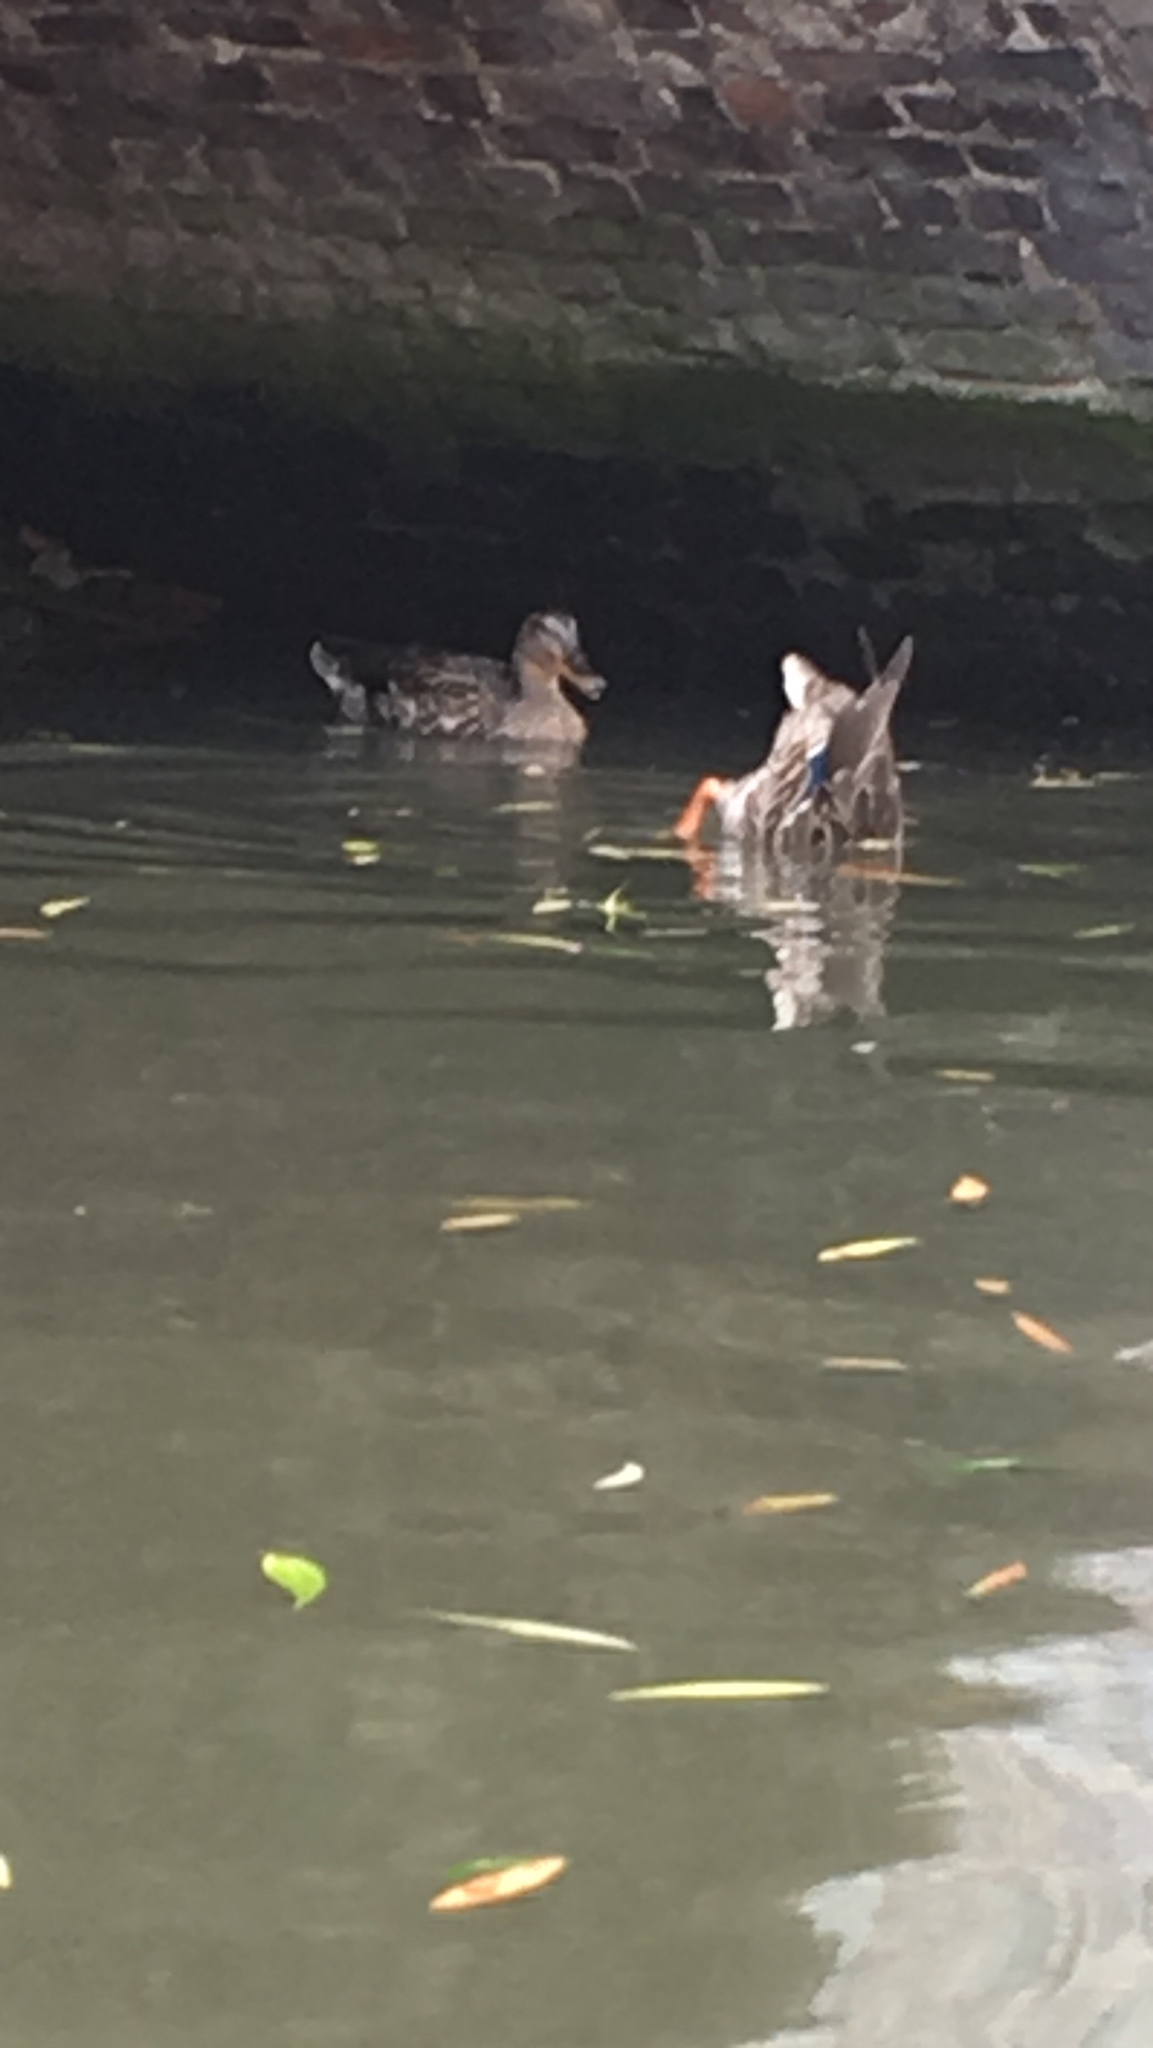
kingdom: Animalia
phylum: Chordata
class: Aves
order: Anseriformes
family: Anatidae
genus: Anas
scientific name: Anas platyrhynchos
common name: Mallard
